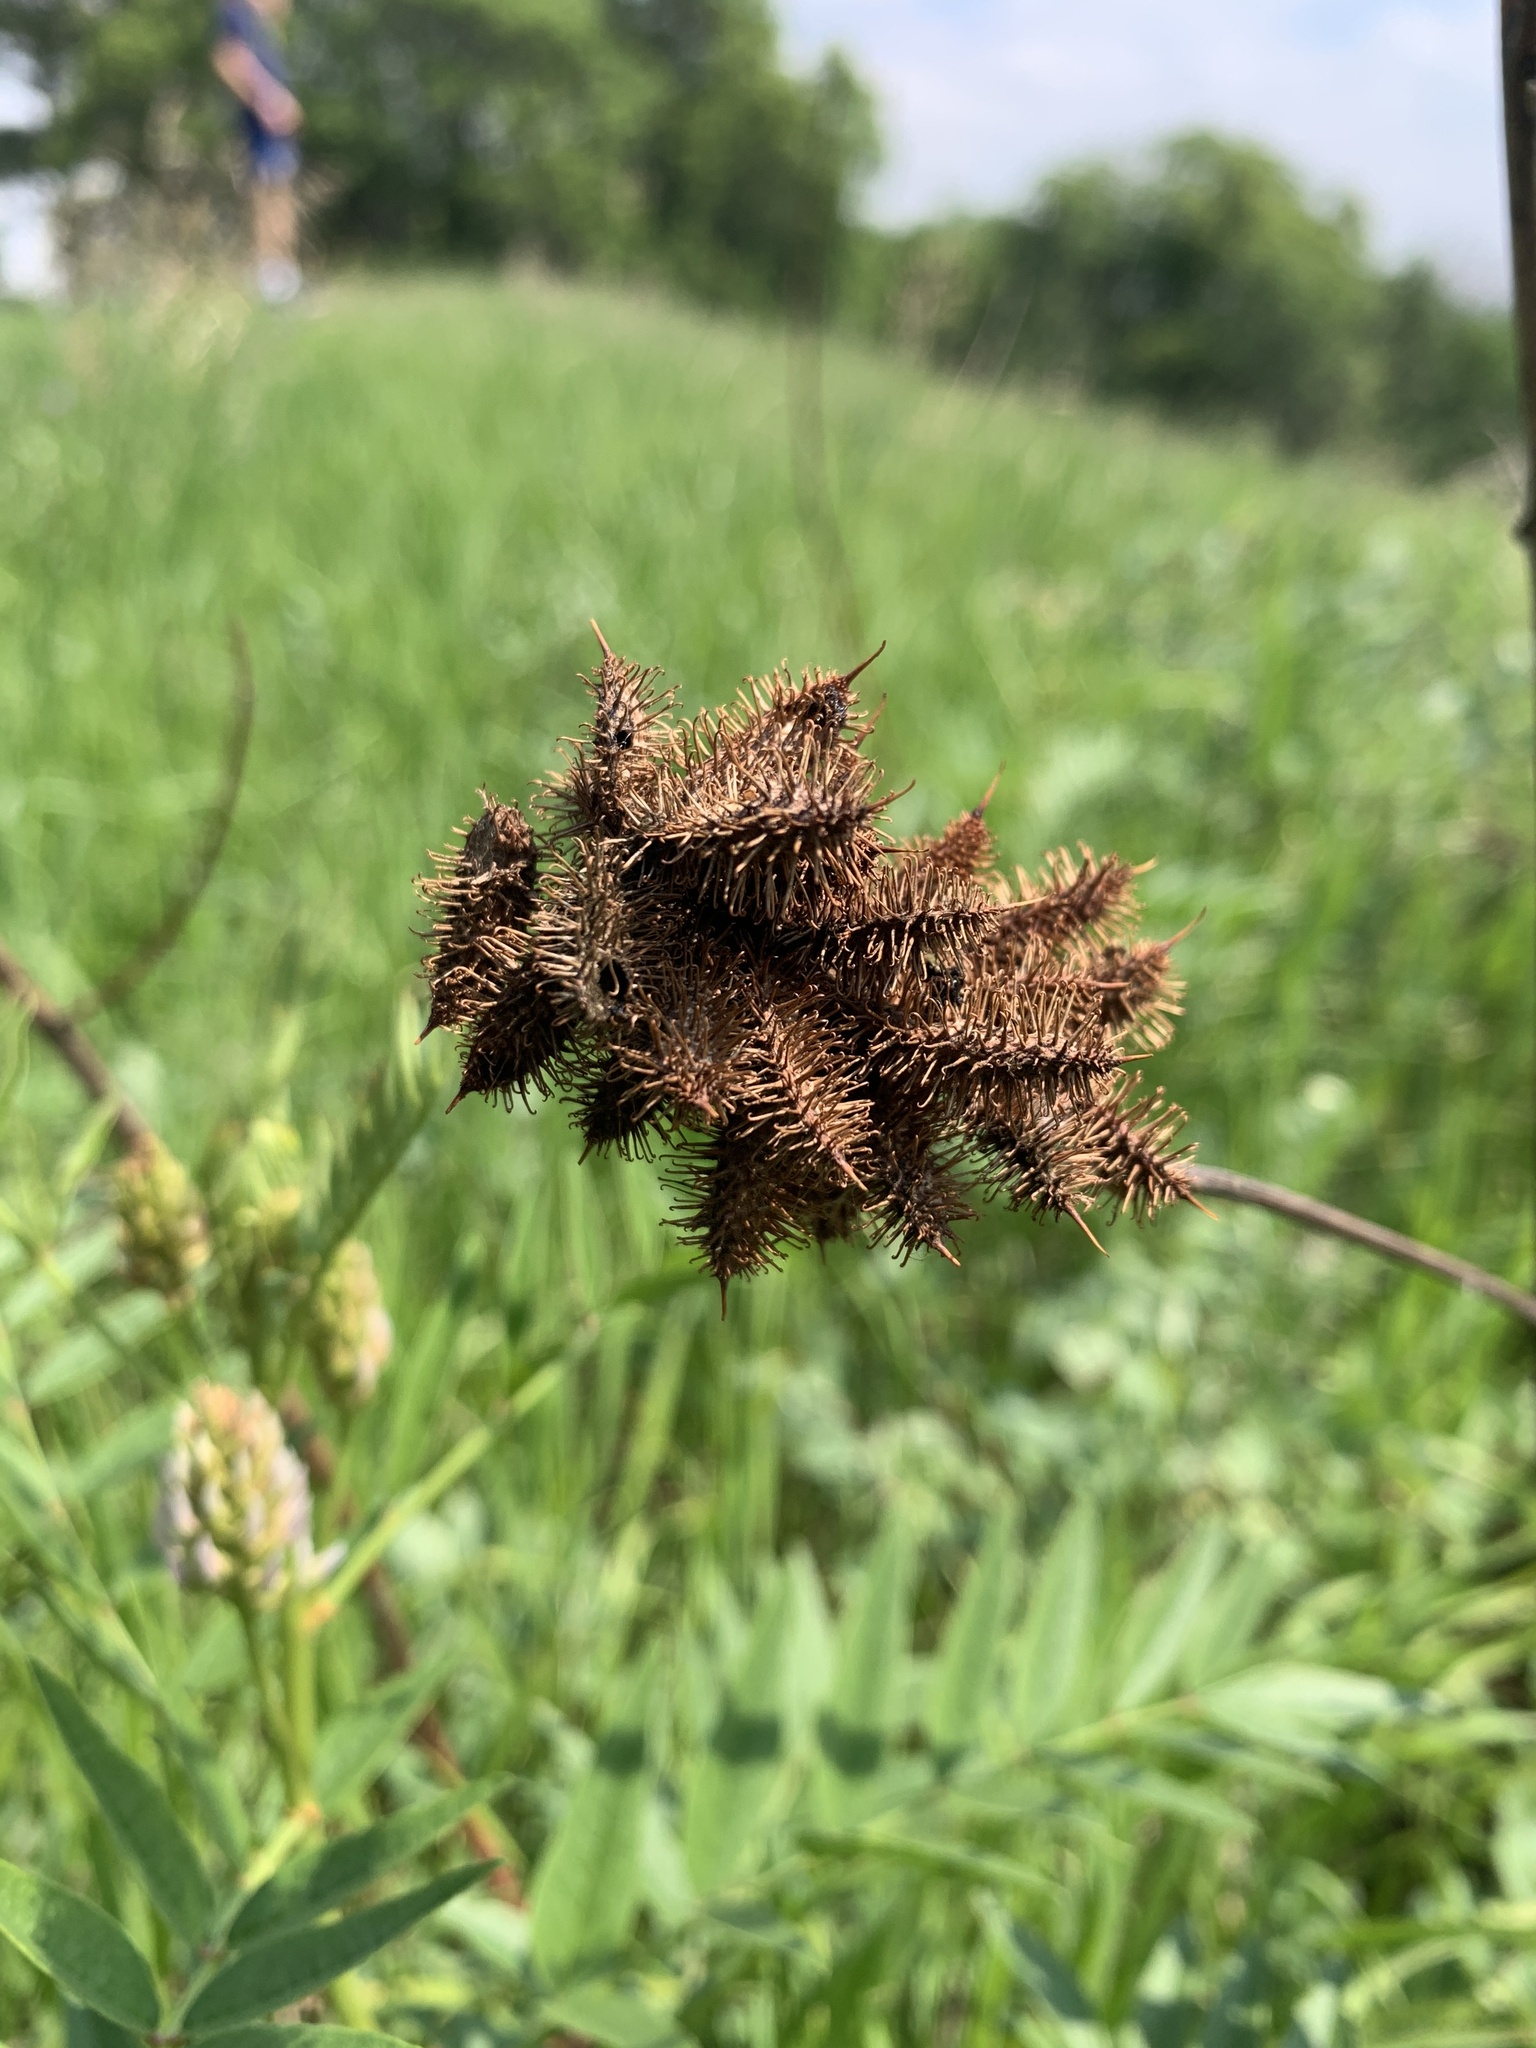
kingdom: Plantae
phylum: Tracheophyta
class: Magnoliopsida
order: Fabales
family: Fabaceae
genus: Glycyrrhiza
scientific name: Glycyrrhiza lepidota
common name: American liquorice
